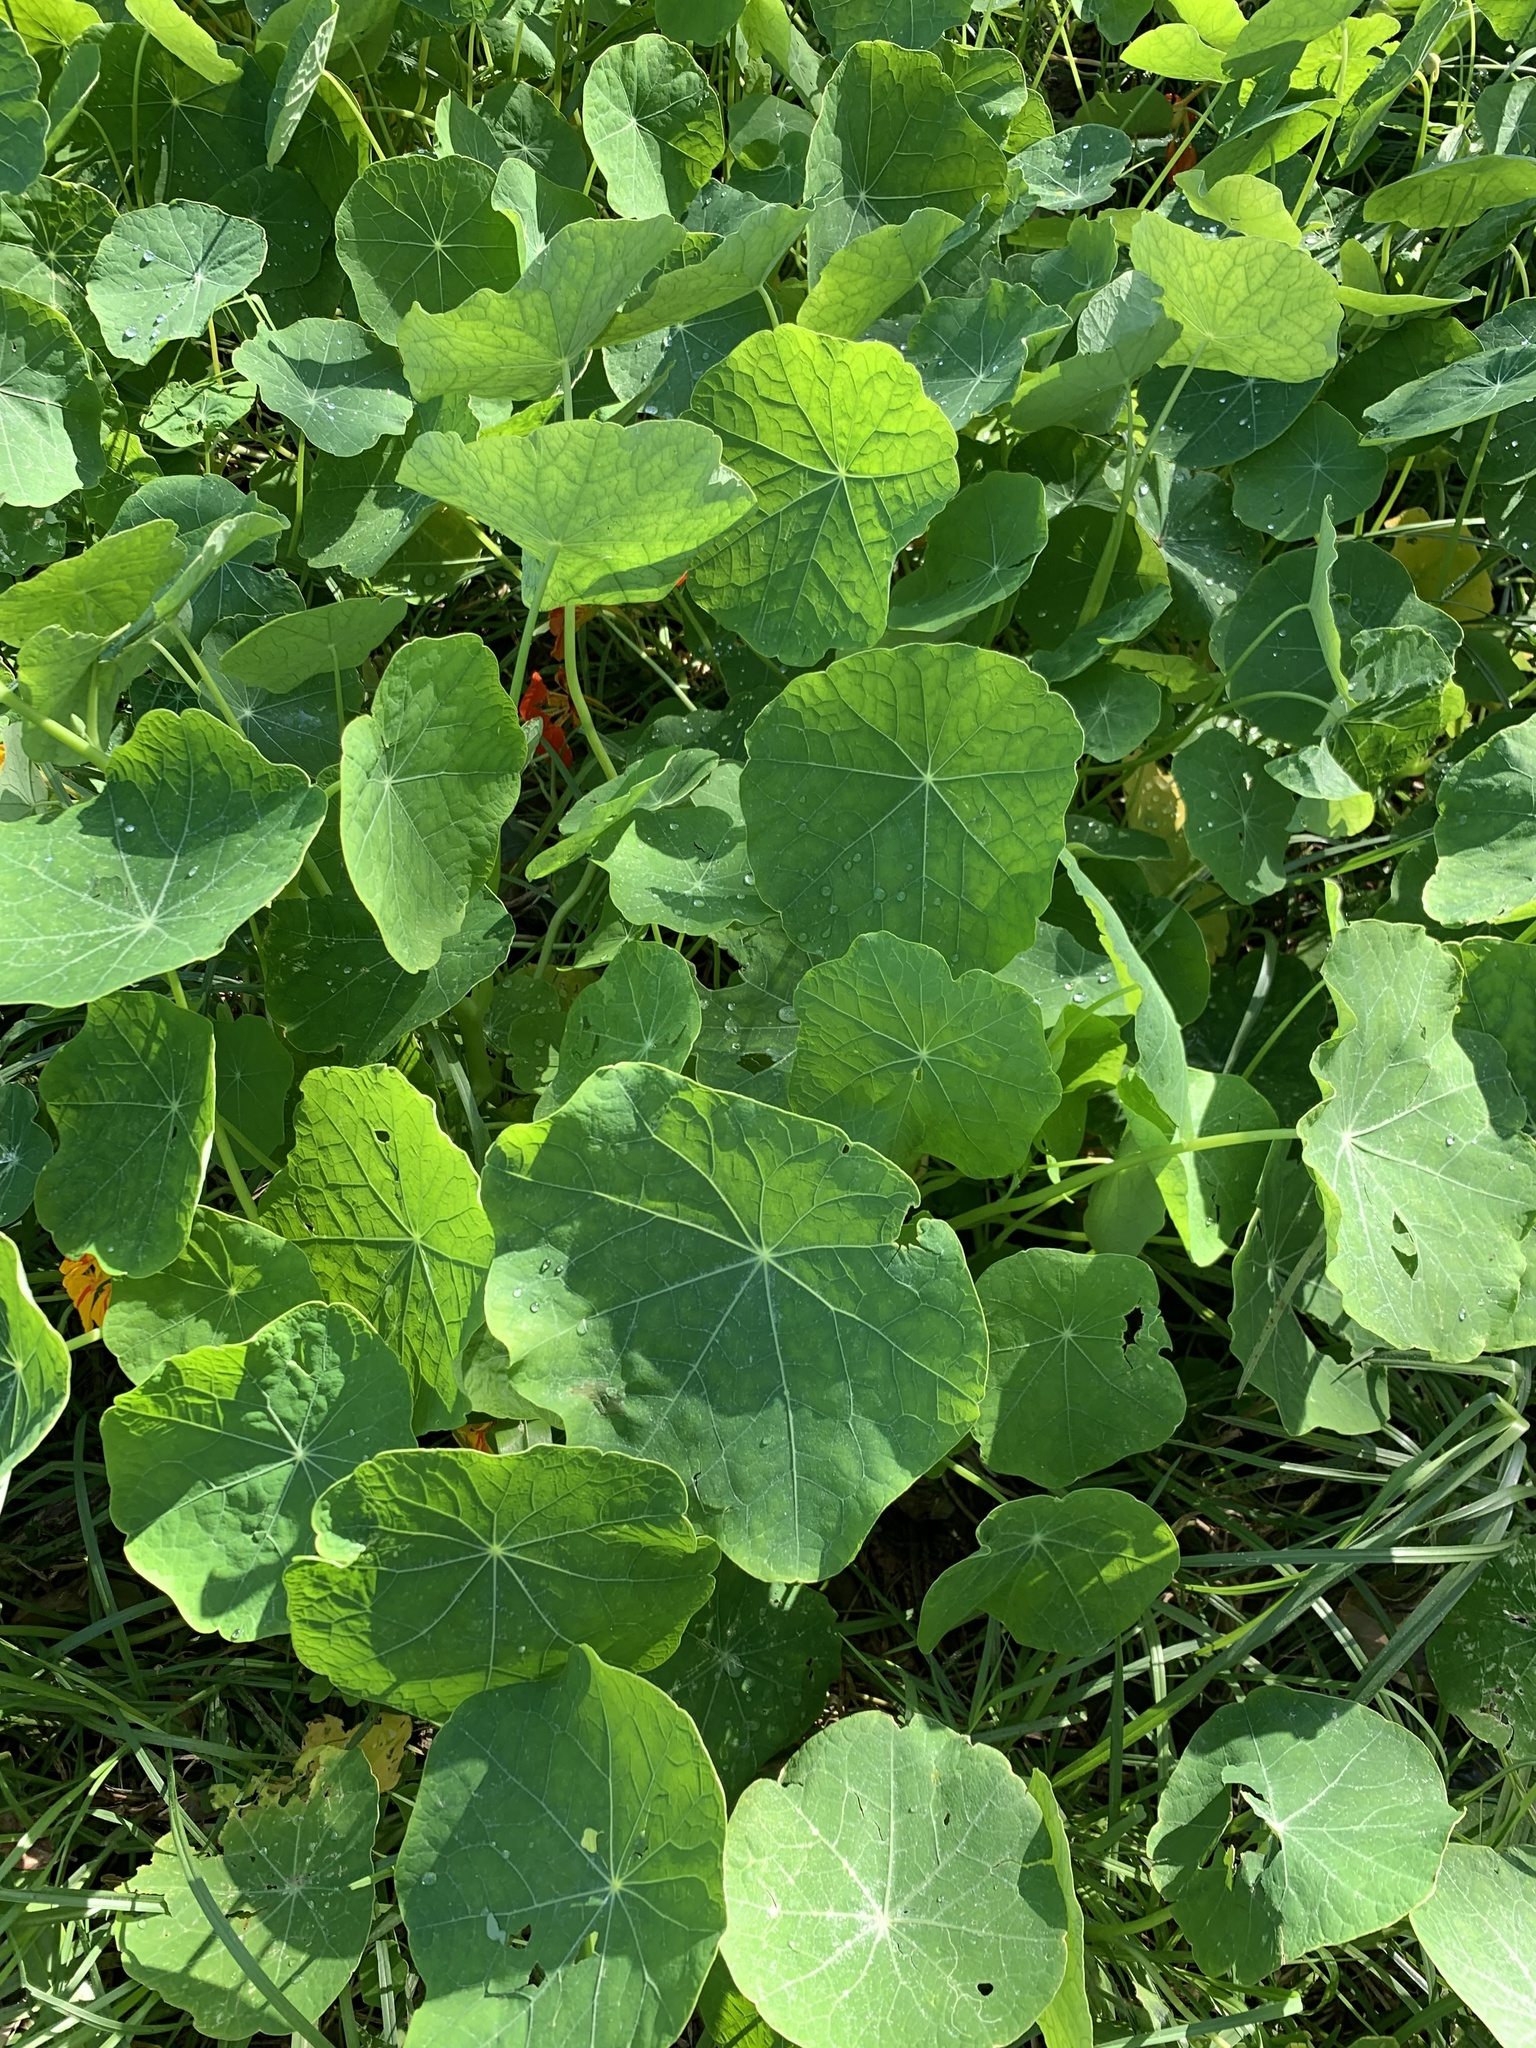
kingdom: Plantae
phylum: Tracheophyta
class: Magnoliopsida
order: Brassicales
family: Tropaeolaceae
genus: Tropaeolum
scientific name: Tropaeolum majus
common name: Nasturtium
